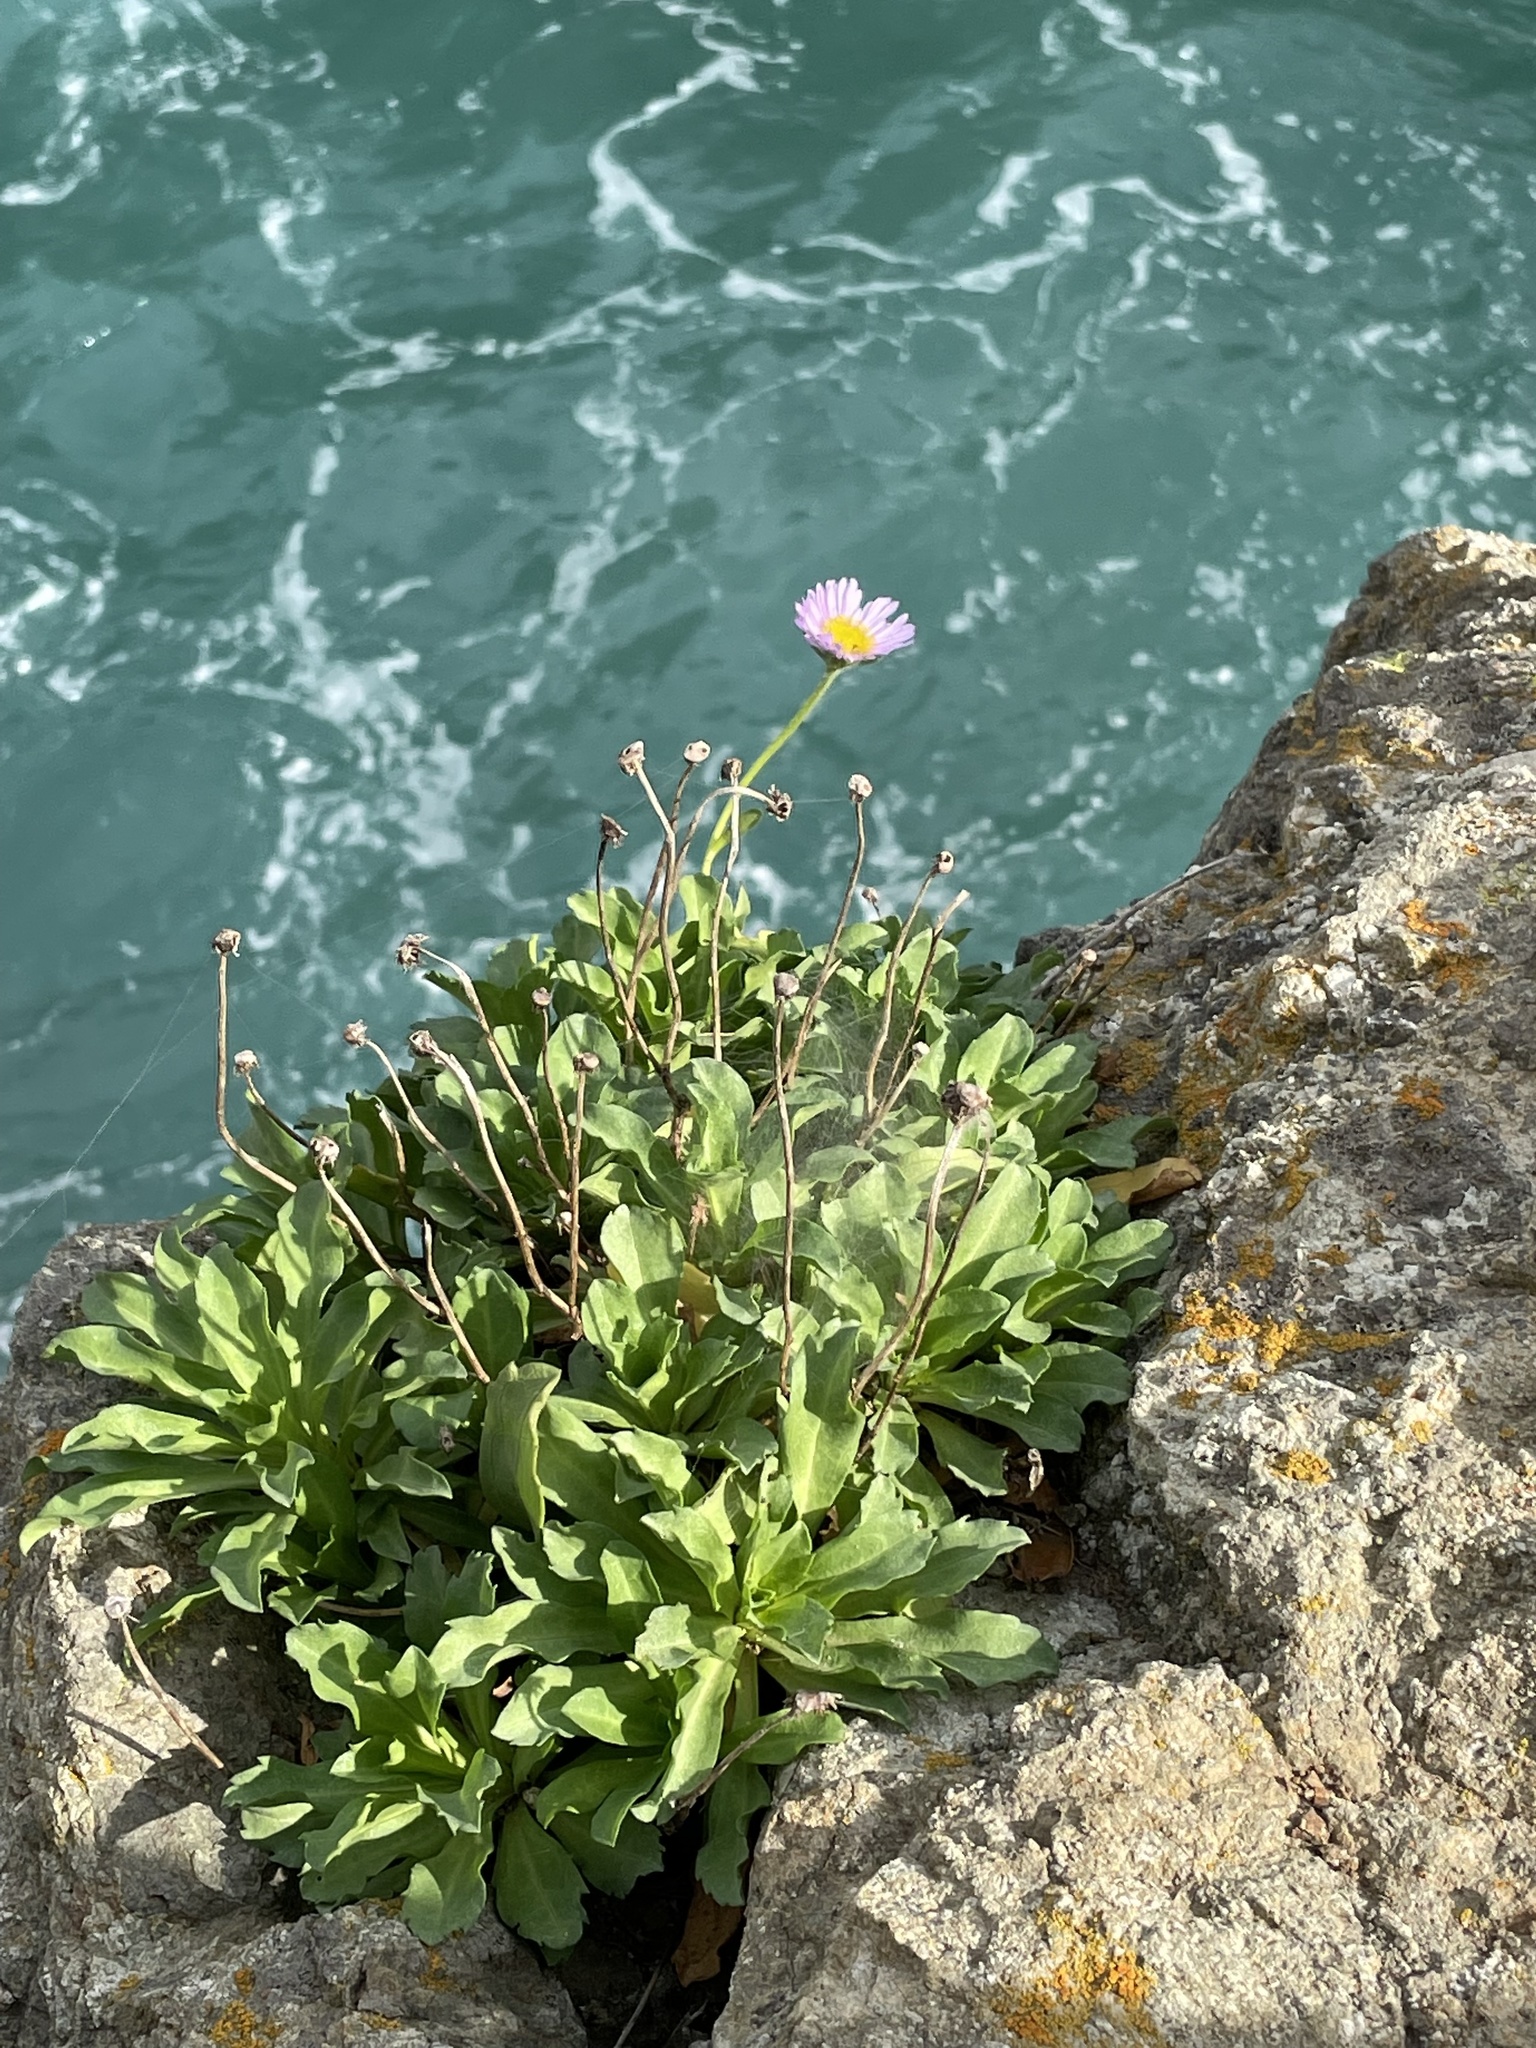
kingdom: Plantae
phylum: Tracheophyta
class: Magnoliopsida
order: Asterales
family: Asteraceae
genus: Erigeron
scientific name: Erigeron glaucus
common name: Seaside daisy
